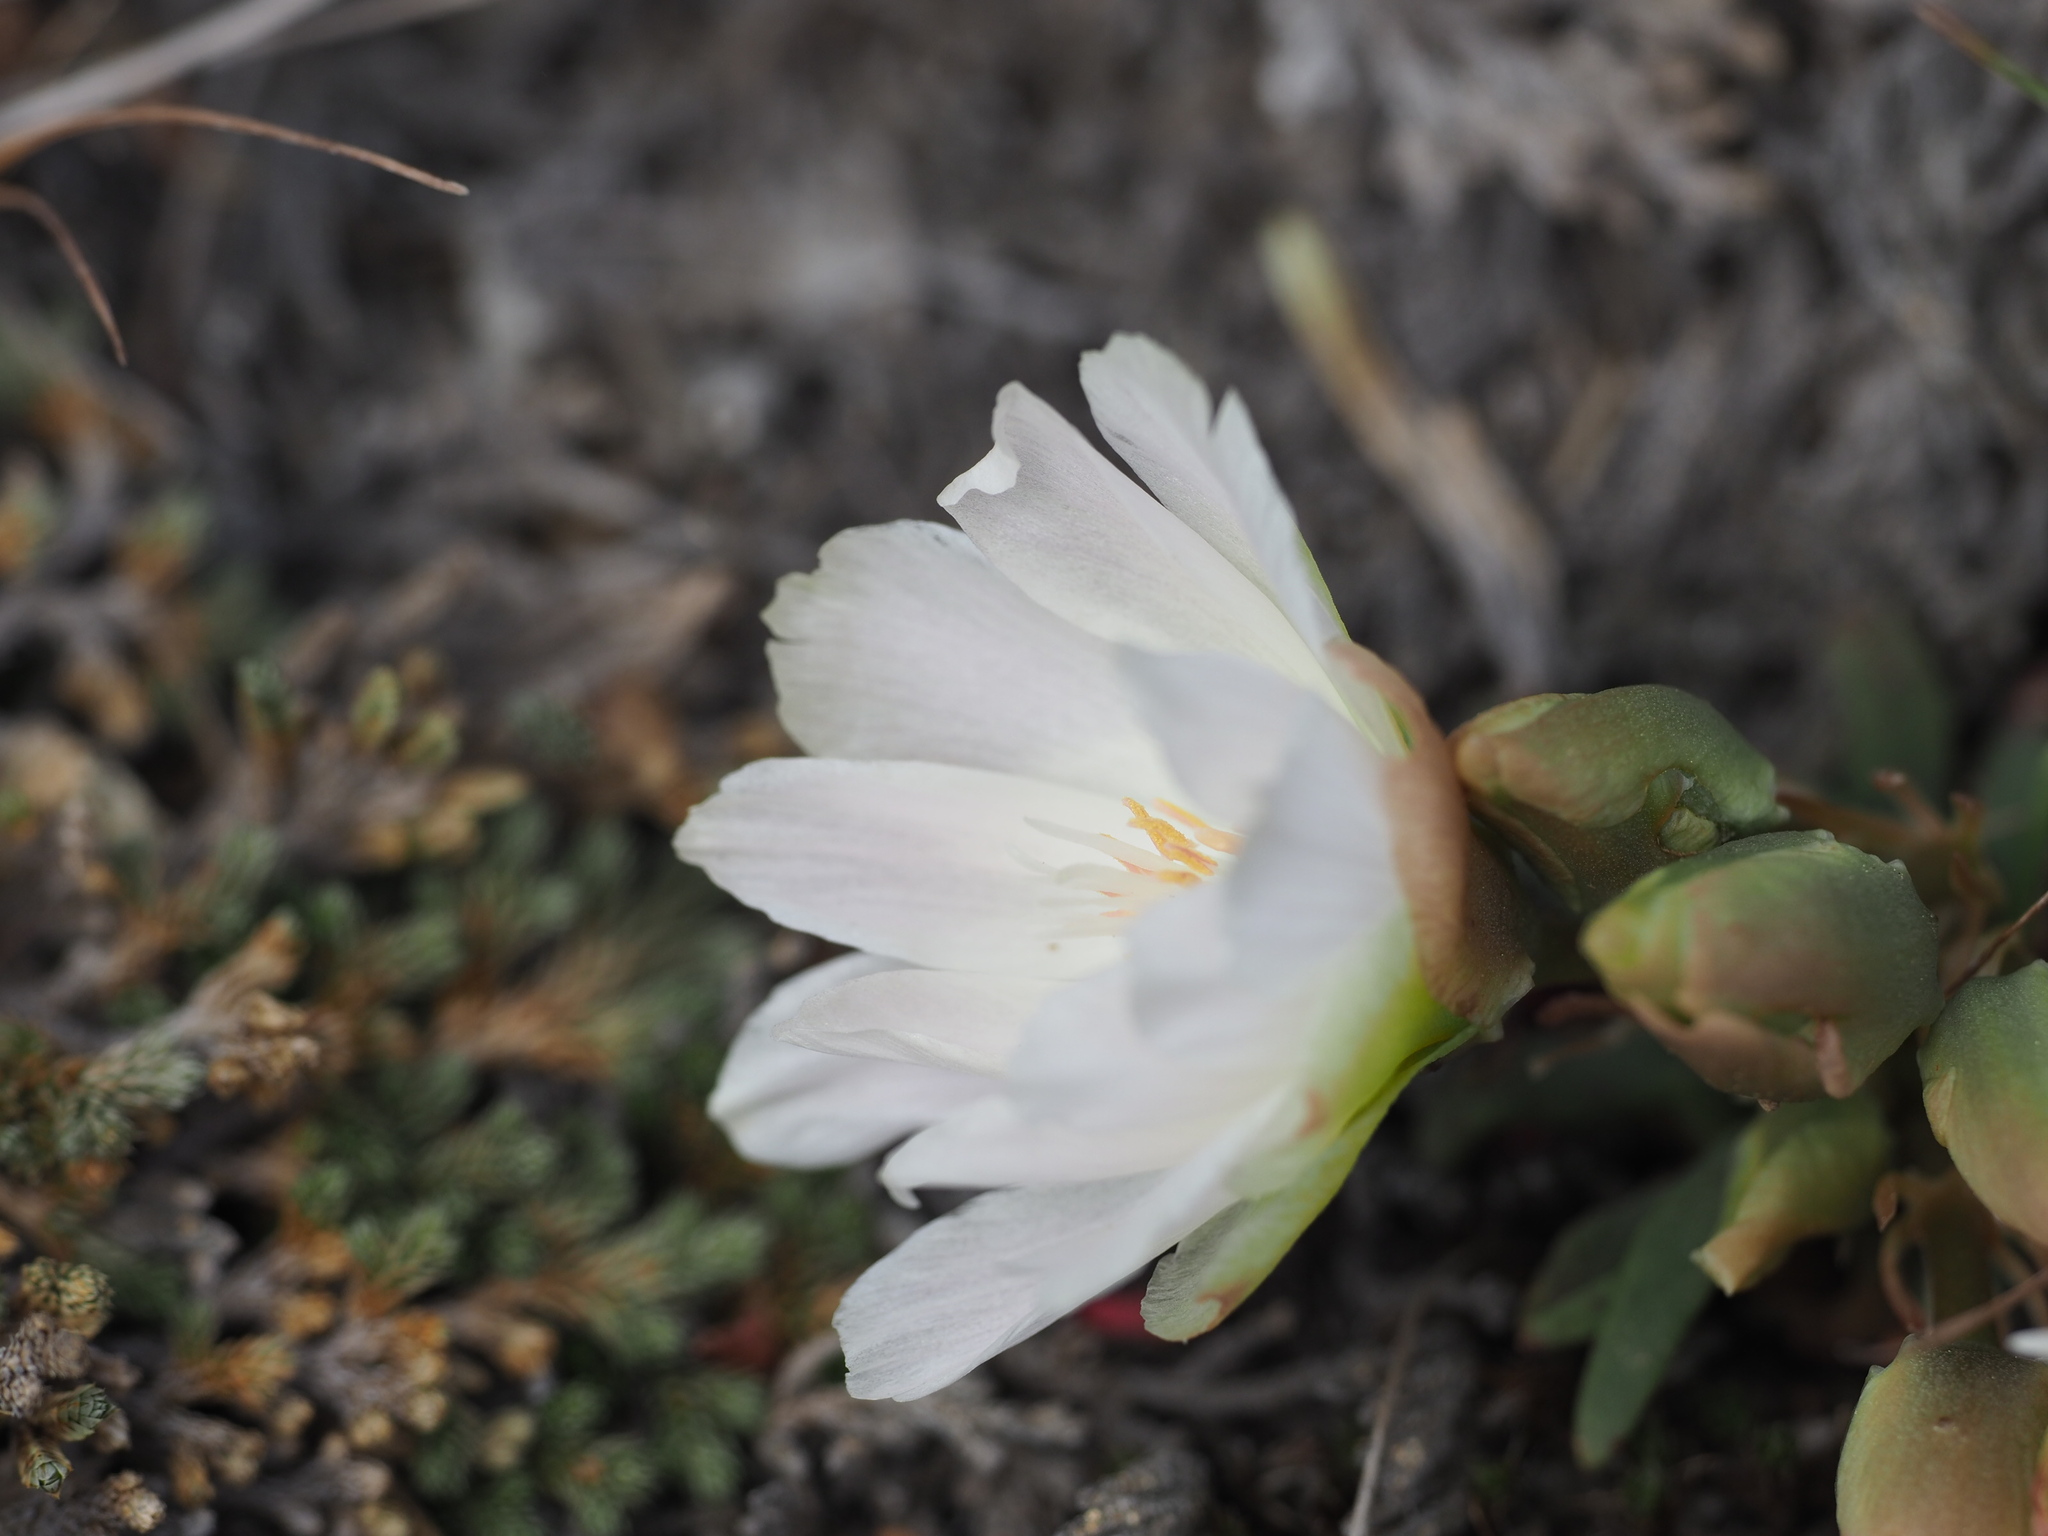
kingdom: Plantae
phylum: Tracheophyta
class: Magnoliopsida
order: Caryophyllales
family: Montiaceae
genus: Lewisia
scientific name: Lewisia rediviva
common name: Bitter-root
